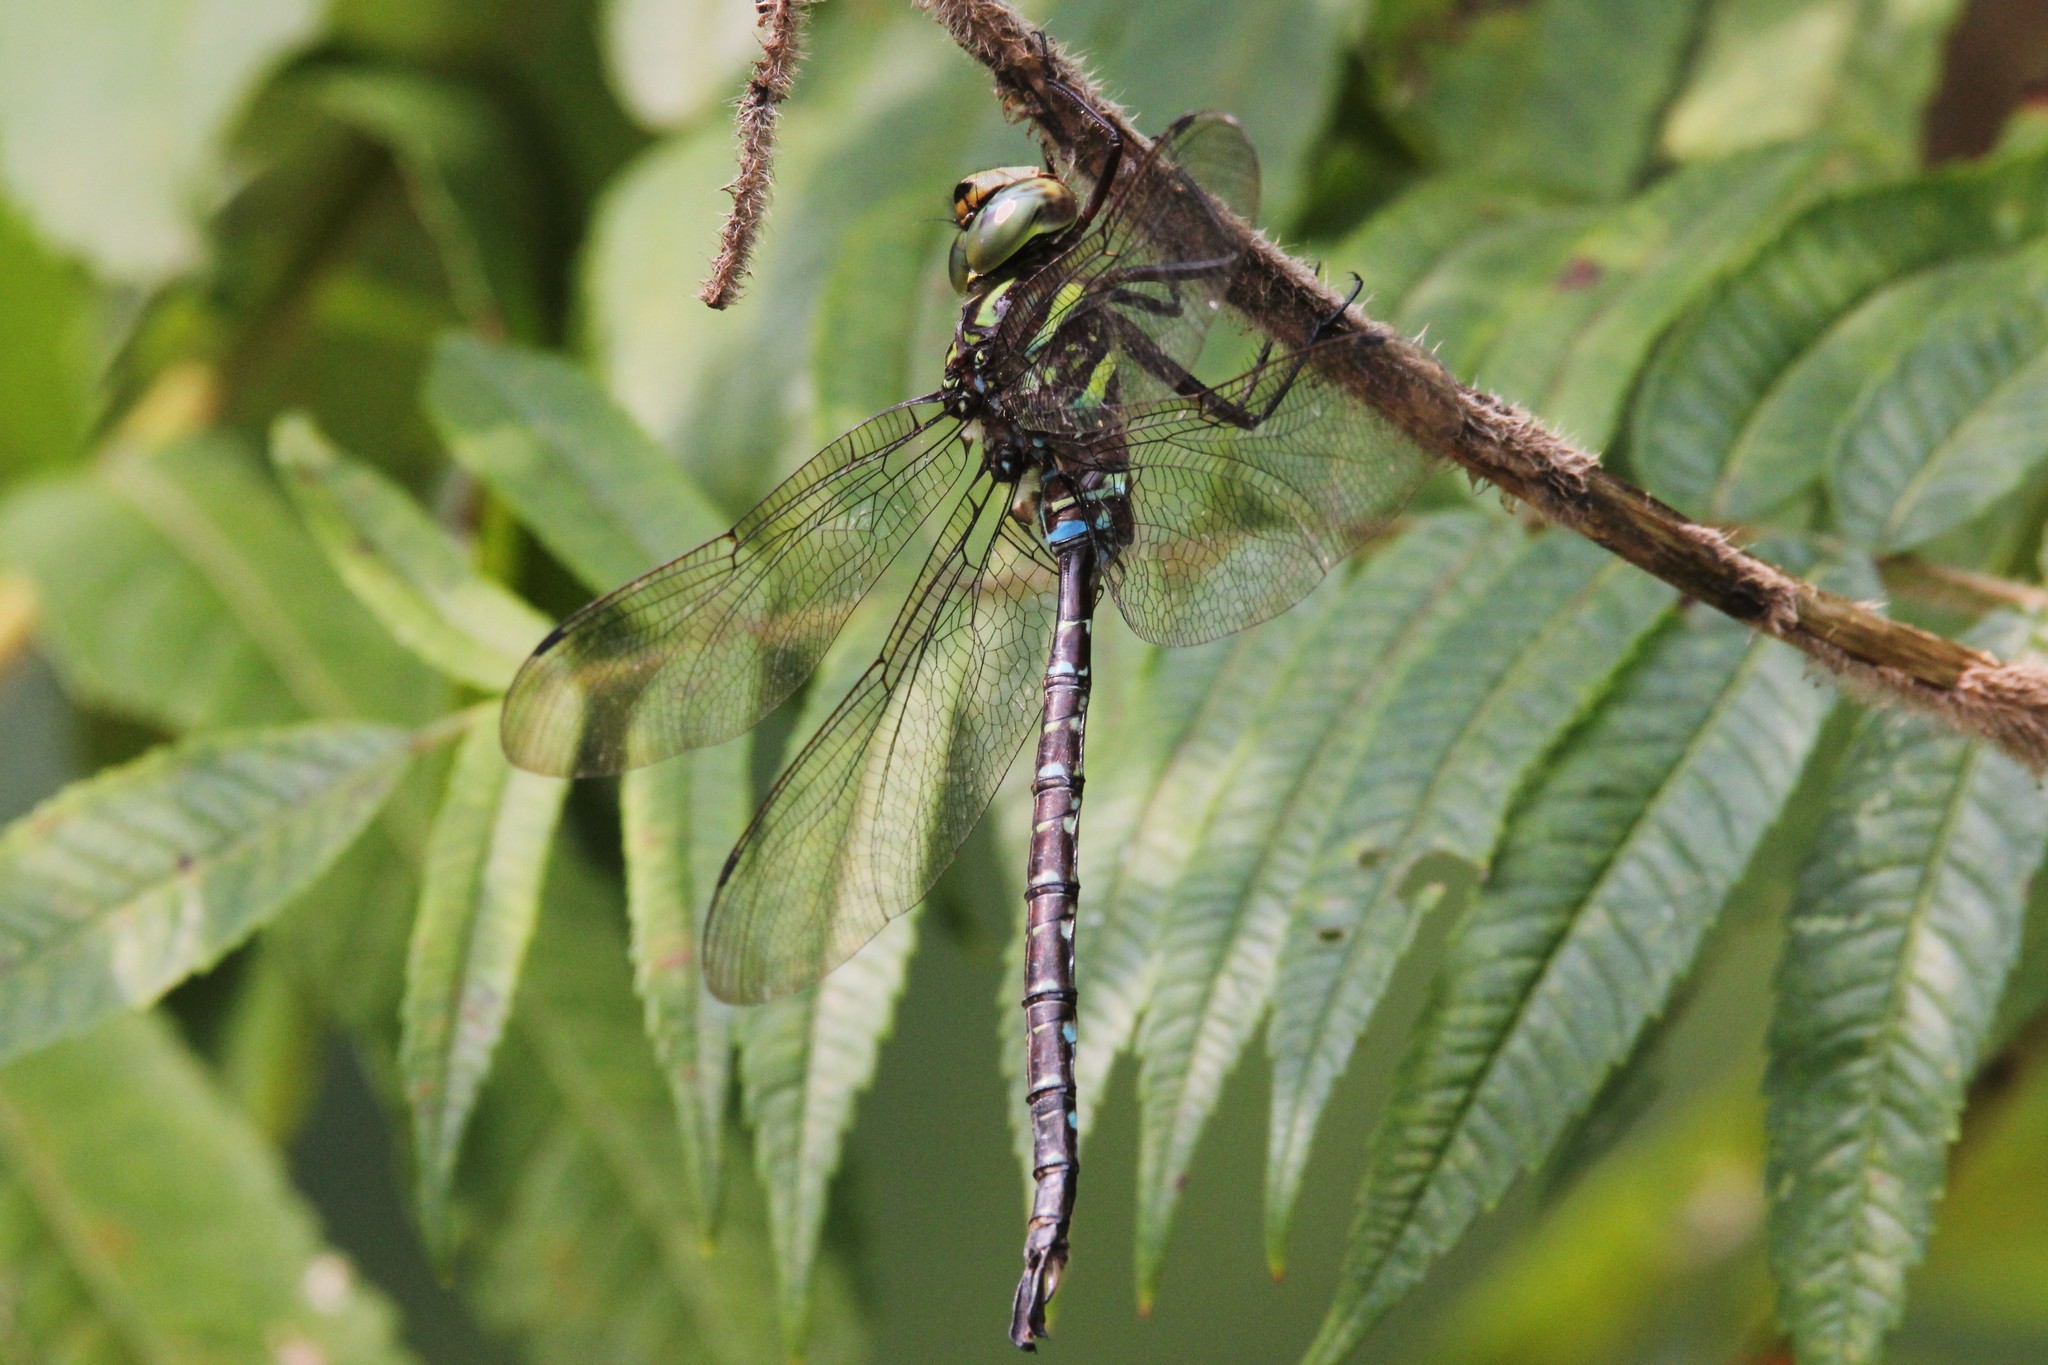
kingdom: Animalia
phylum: Arthropoda
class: Insecta
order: Odonata
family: Aeshnidae
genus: Aeshna
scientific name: Aeshna umbrosa
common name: Shadow darner
